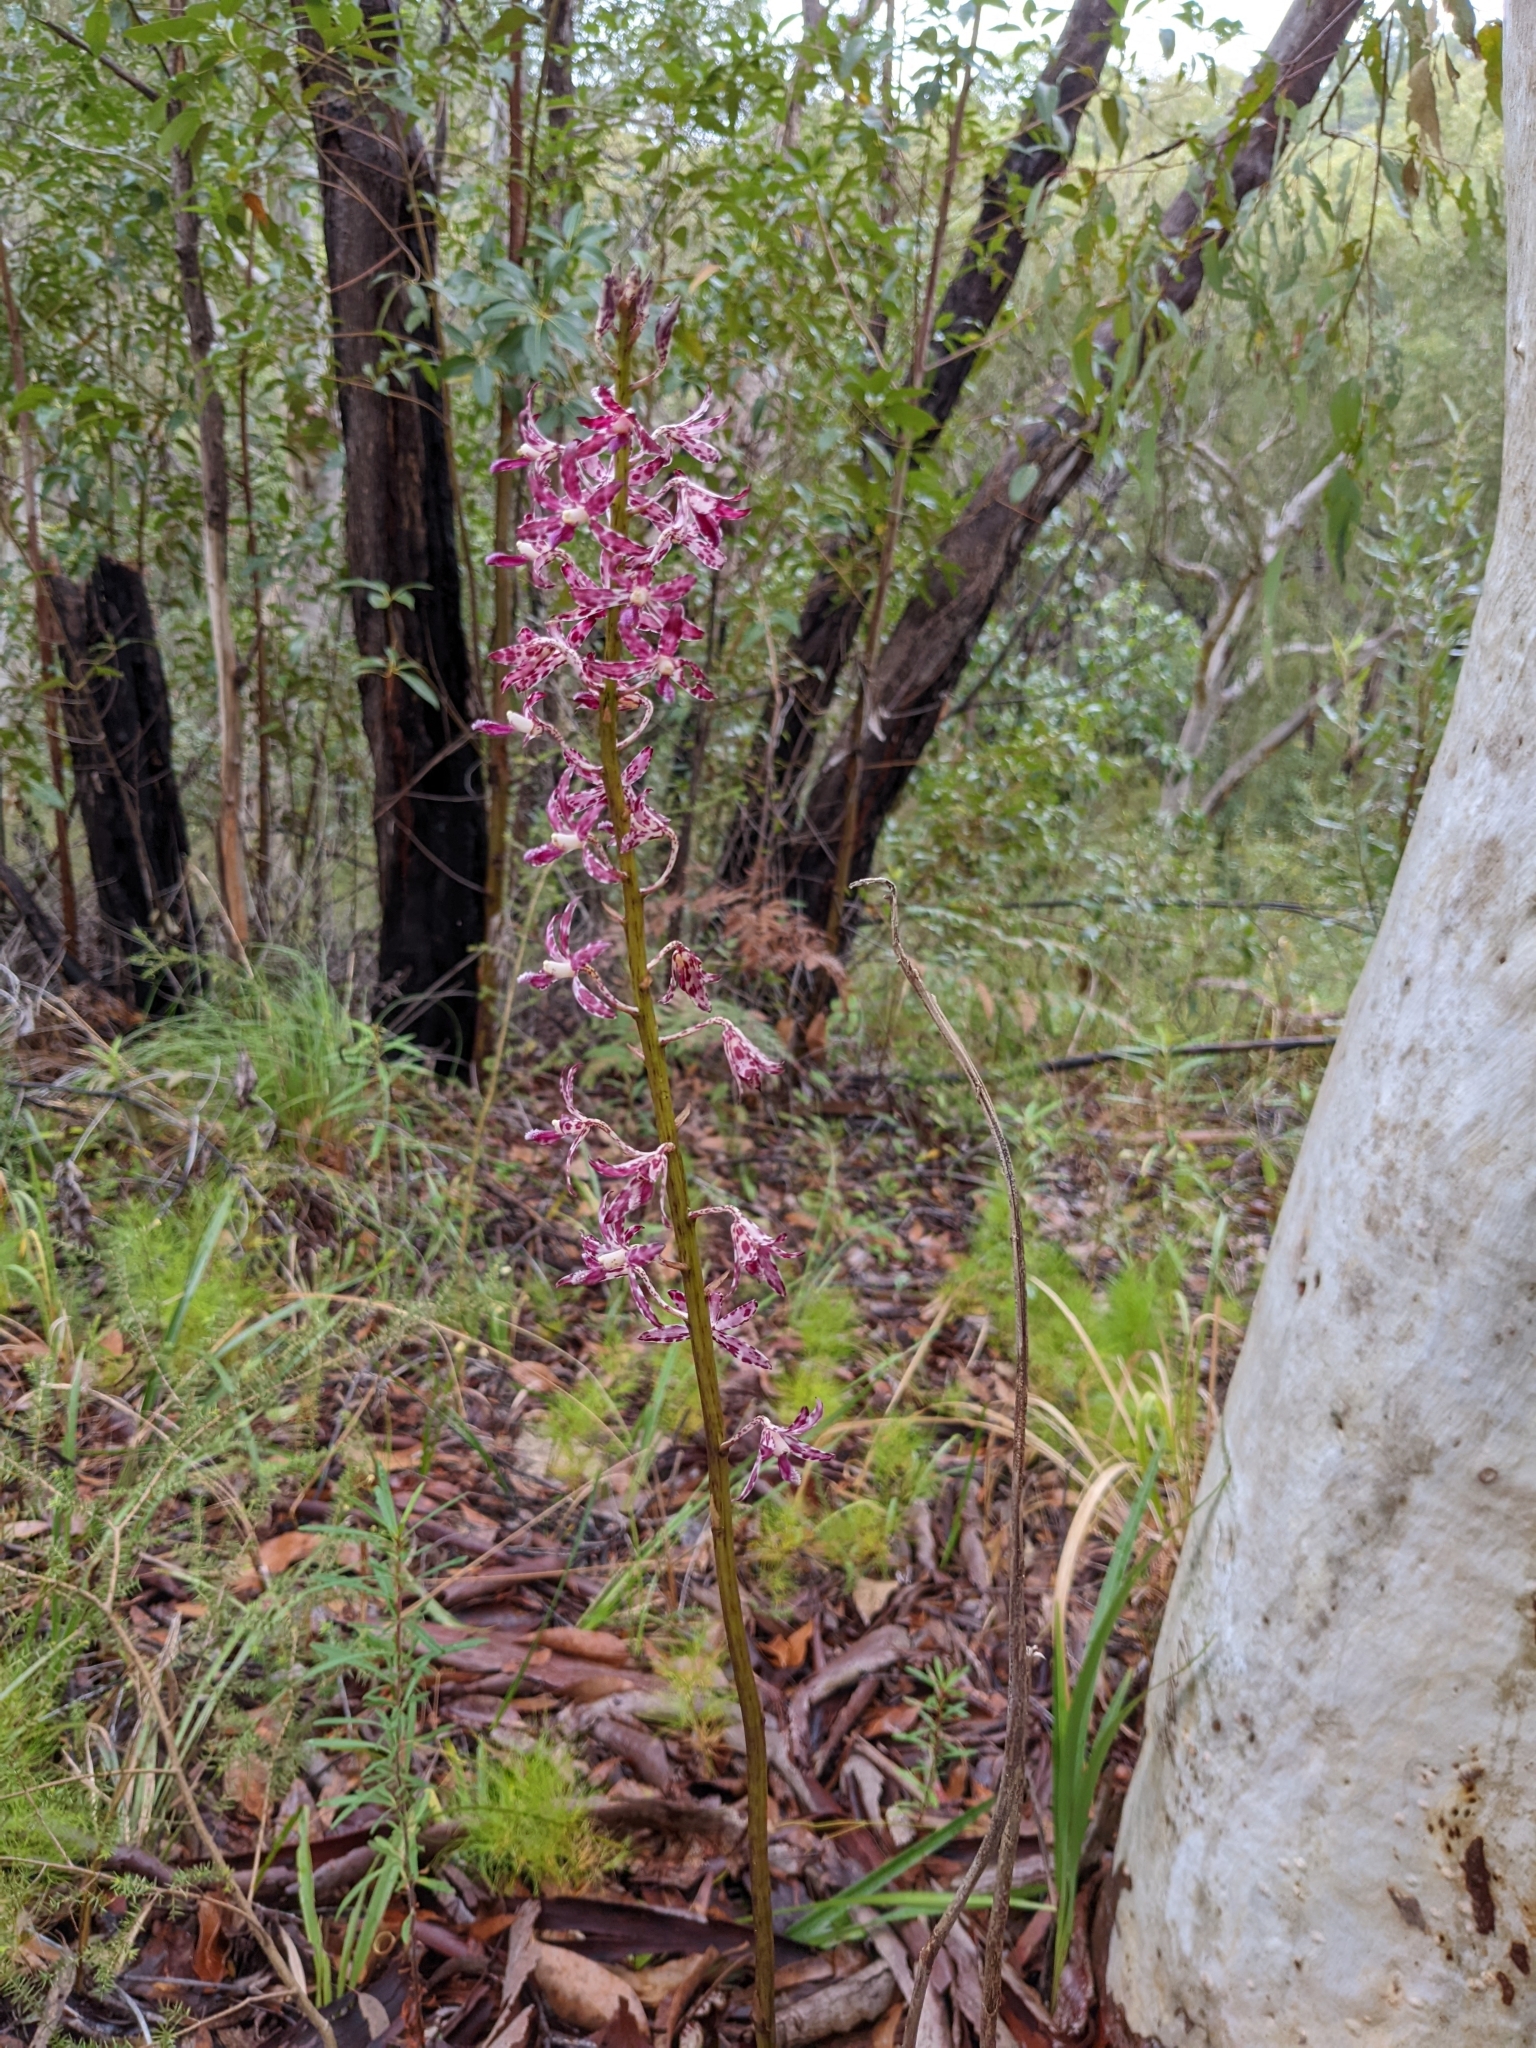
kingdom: Plantae
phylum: Tracheophyta
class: Liliopsida
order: Asparagales
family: Orchidaceae
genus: Dipodium
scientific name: Dipodium variegatum
